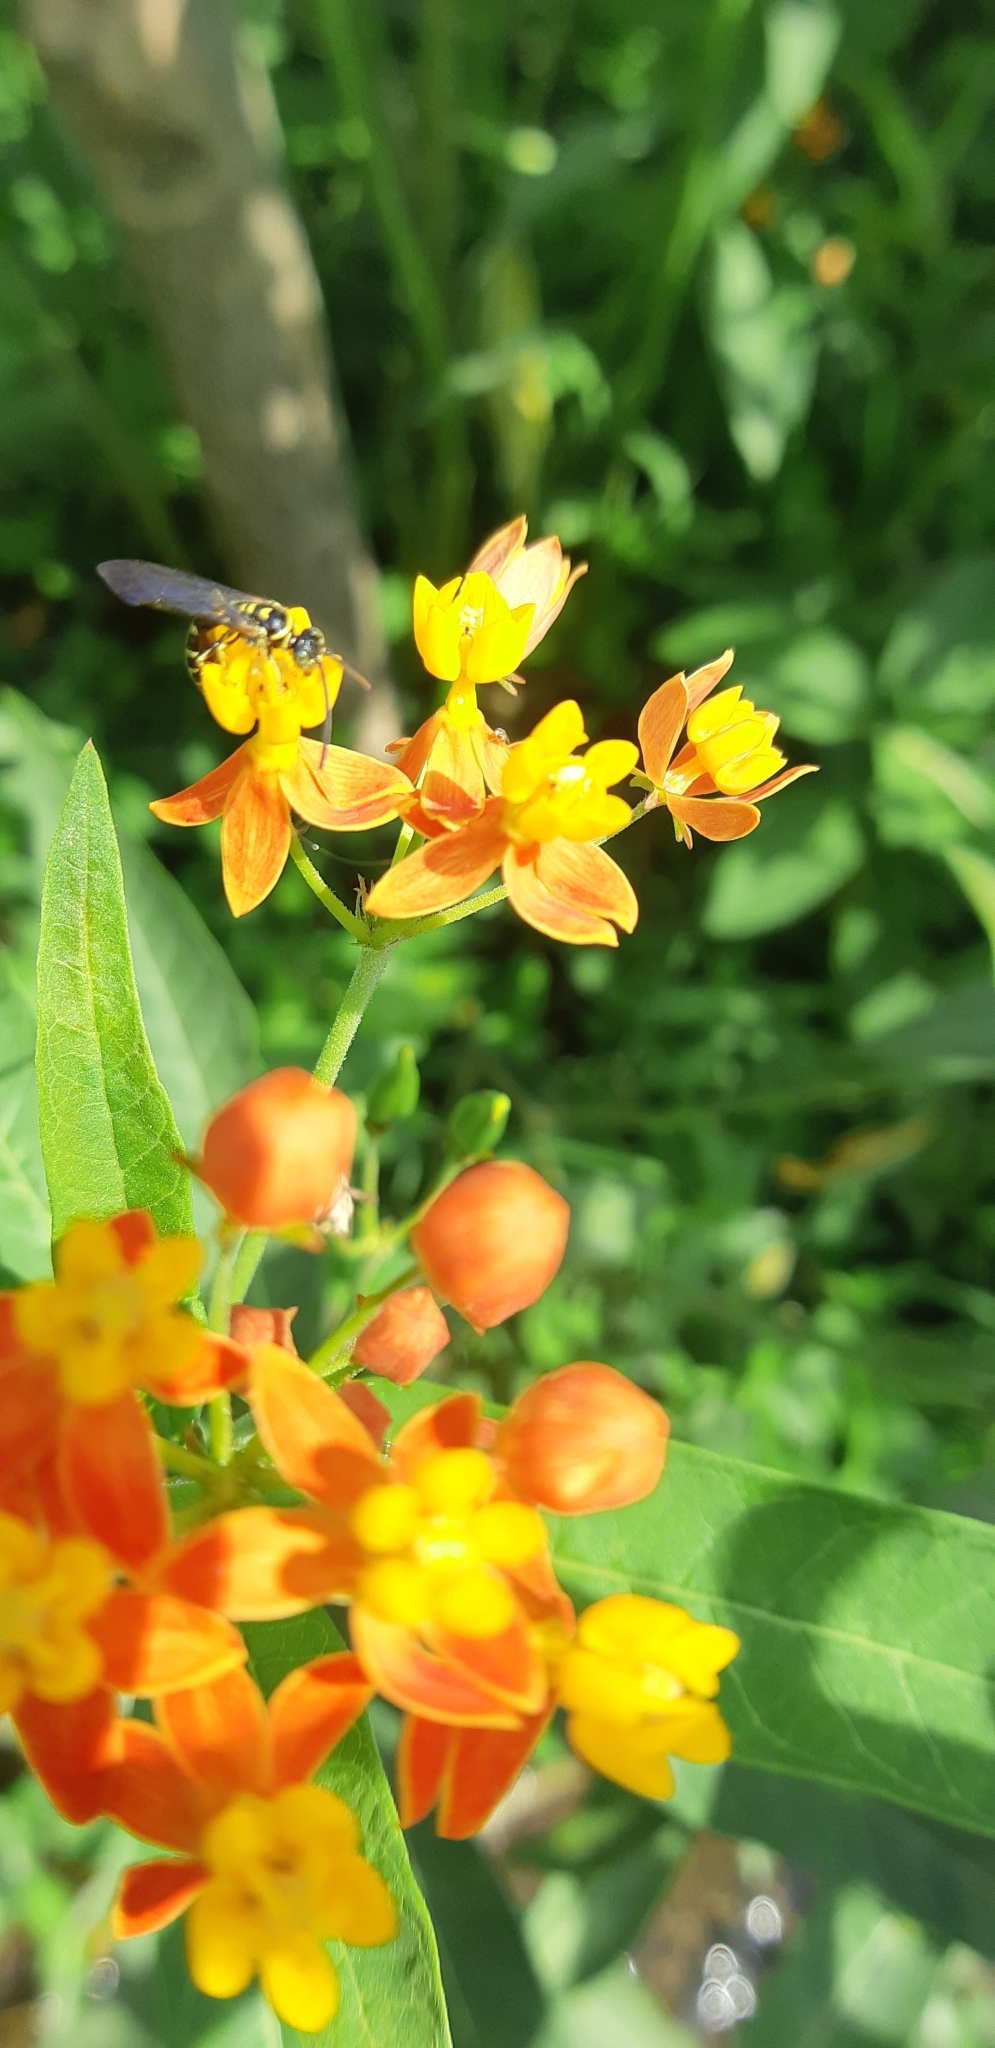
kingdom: Plantae
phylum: Tracheophyta
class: Magnoliopsida
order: Gentianales
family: Apocynaceae
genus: Asclepias
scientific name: Asclepias curassavica
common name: Bloodflower
